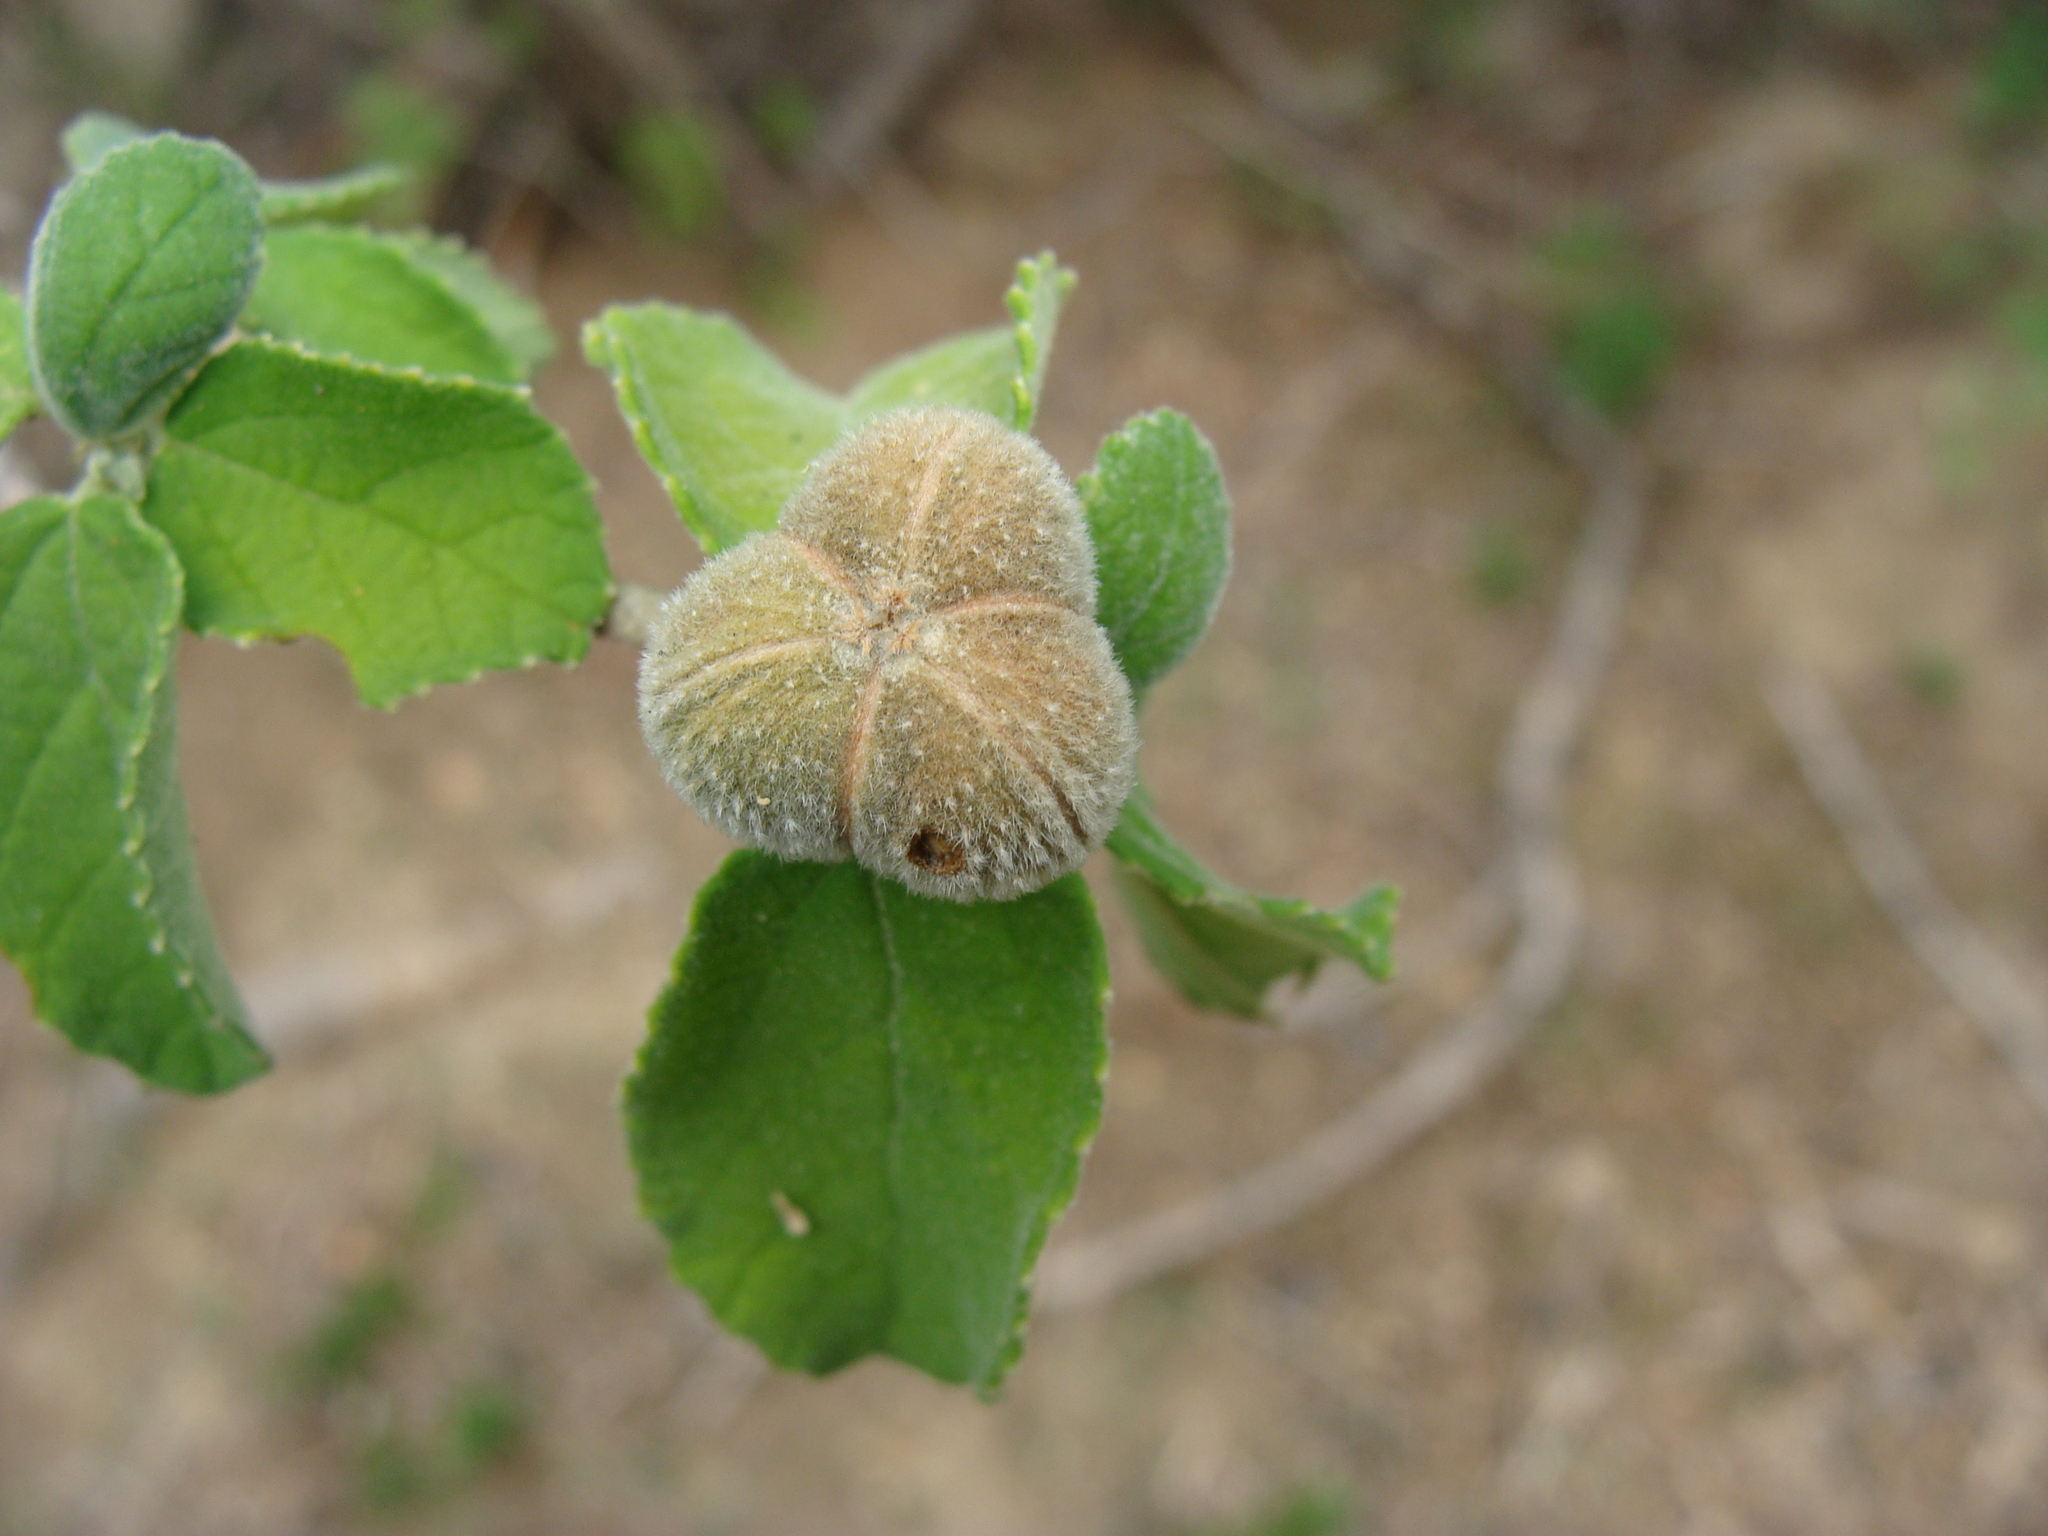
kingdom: Plantae
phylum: Tracheophyta
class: Magnoliopsida
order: Malpighiales
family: Euphorbiaceae
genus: Bernardia
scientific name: Bernardia viridis
